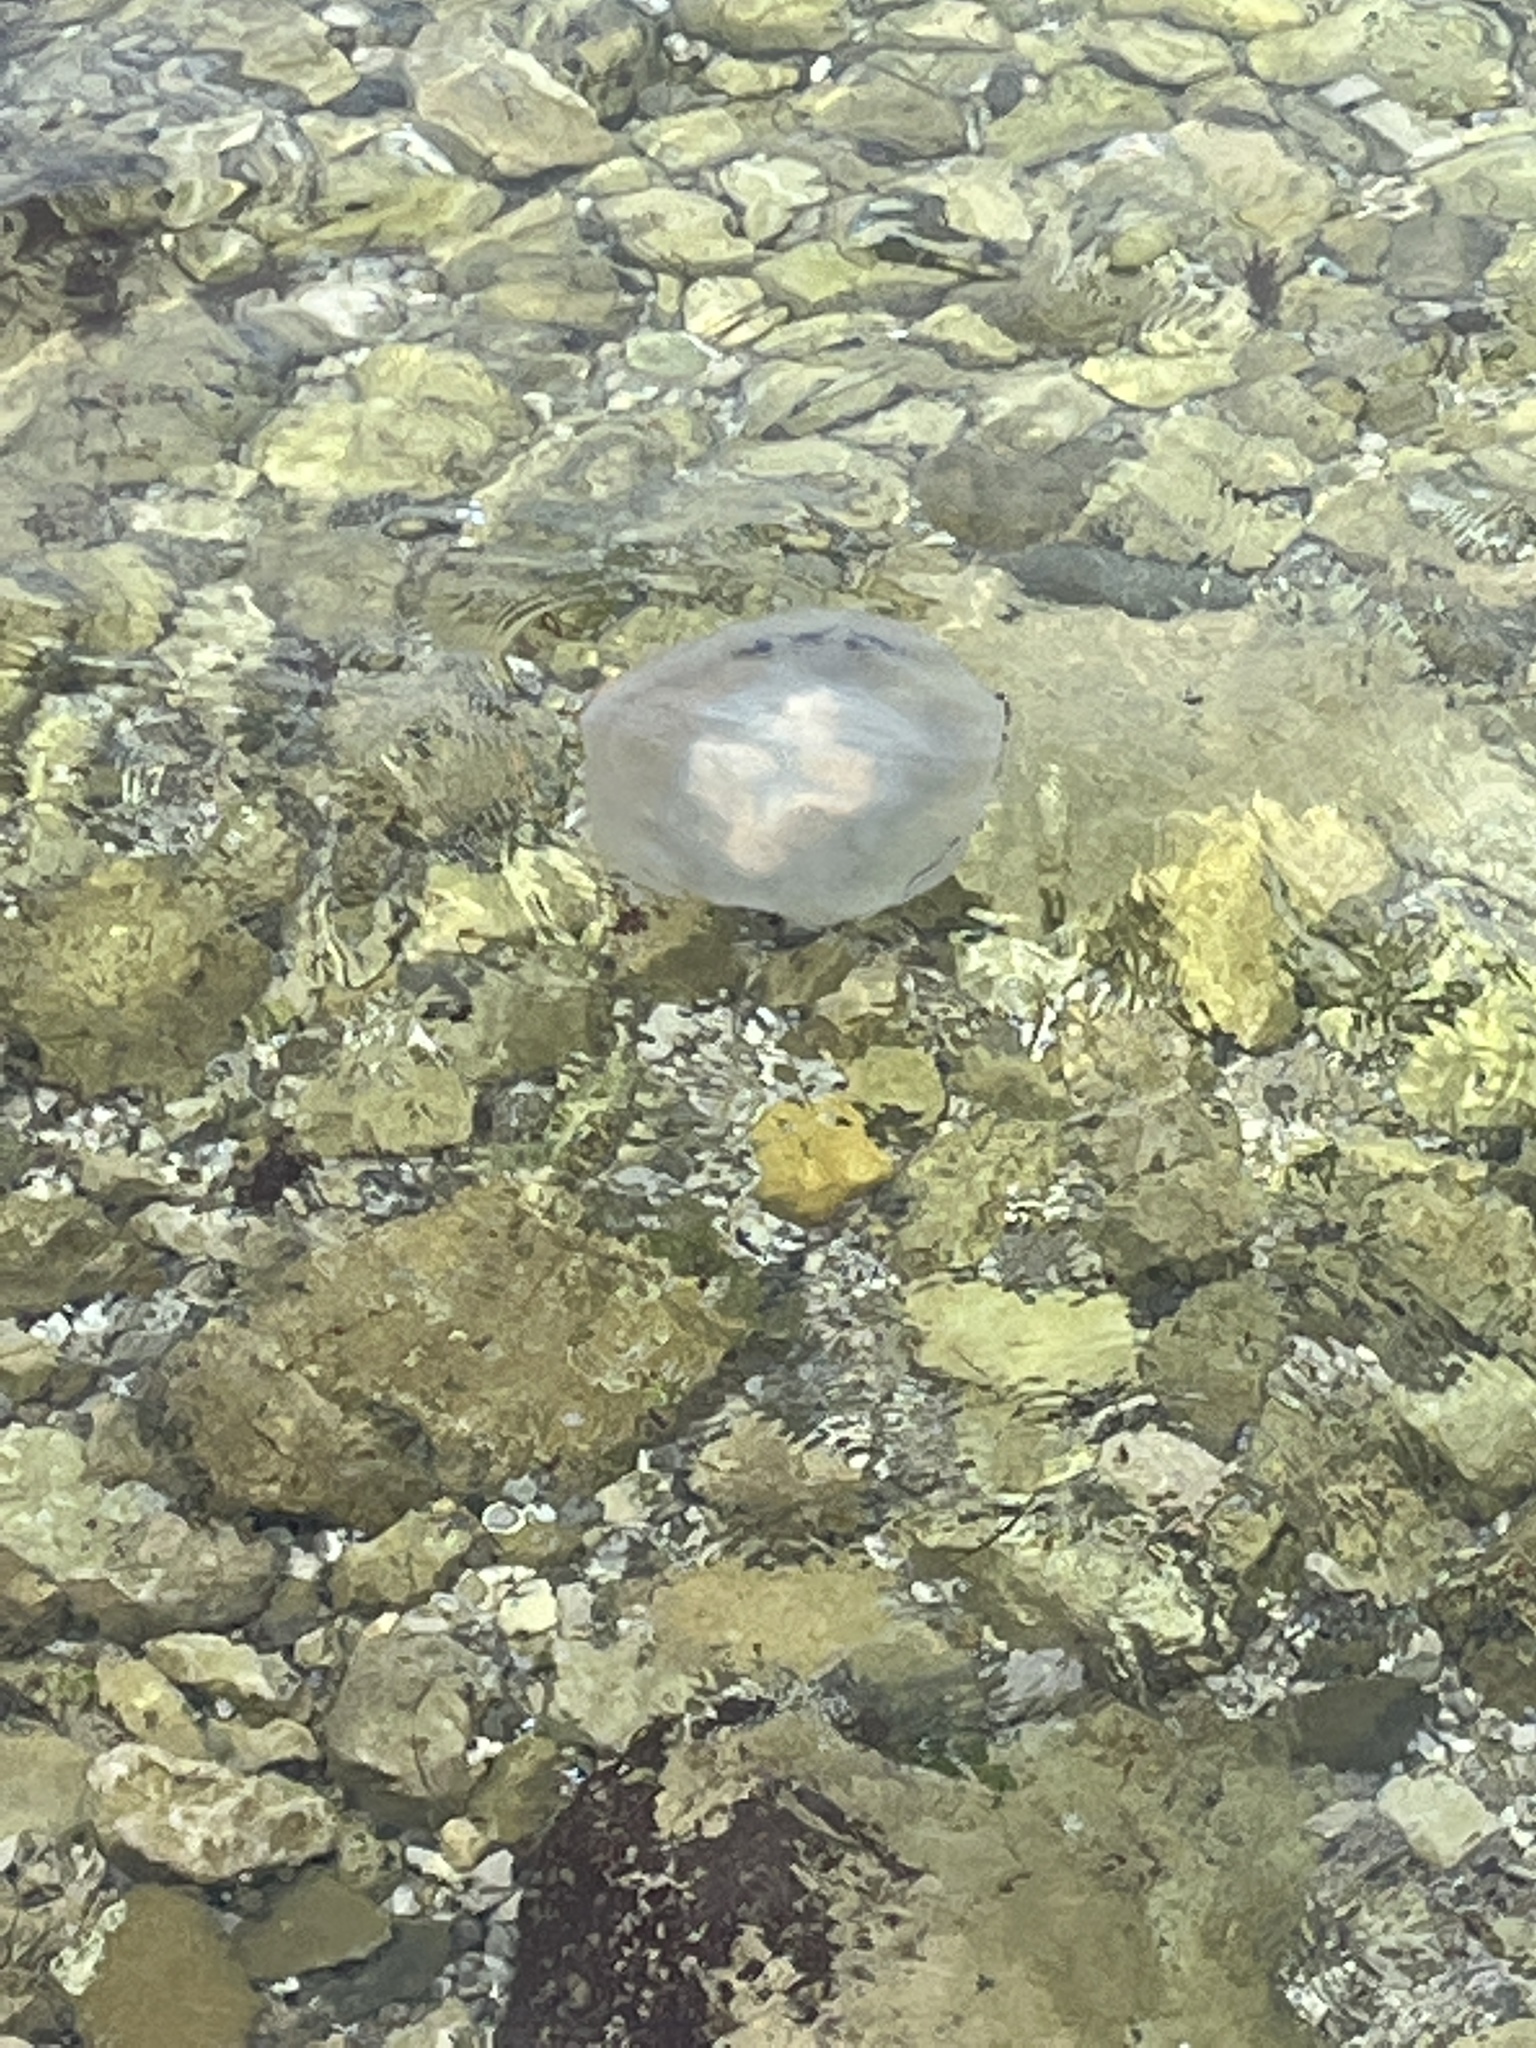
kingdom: Animalia
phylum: Cnidaria
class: Scyphozoa
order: Rhizostomeae
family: Rhizostomatidae
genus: Rhizostoma
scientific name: Rhizostoma pulmo
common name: Barrel jellyfish
